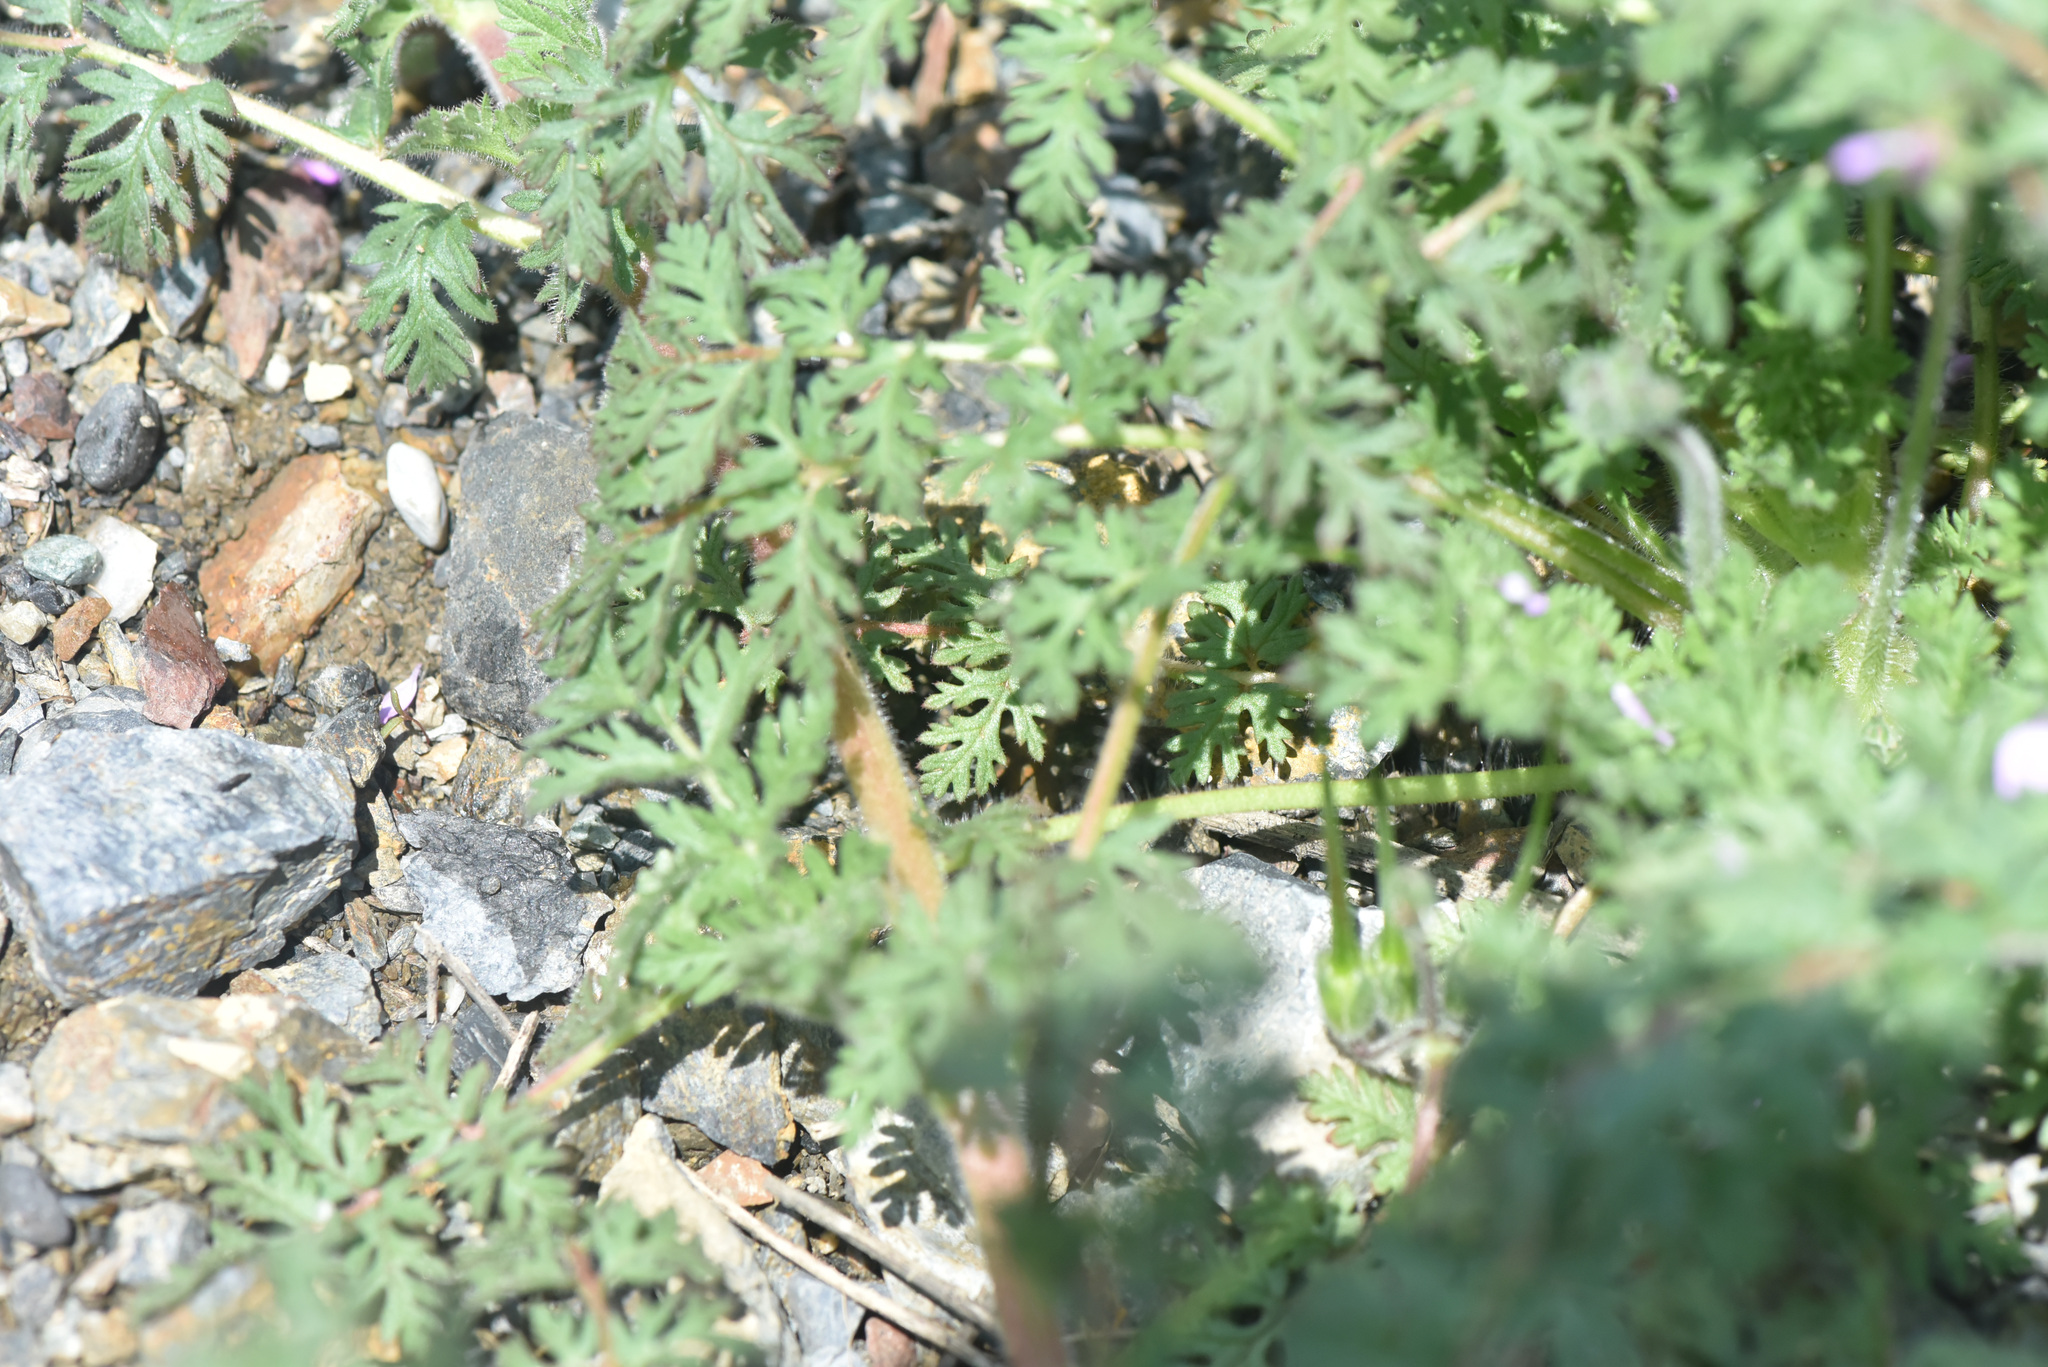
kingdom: Plantae
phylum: Tracheophyta
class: Magnoliopsida
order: Geraniales
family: Geraniaceae
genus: Erodium
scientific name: Erodium cicutarium
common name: Common stork's-bill
